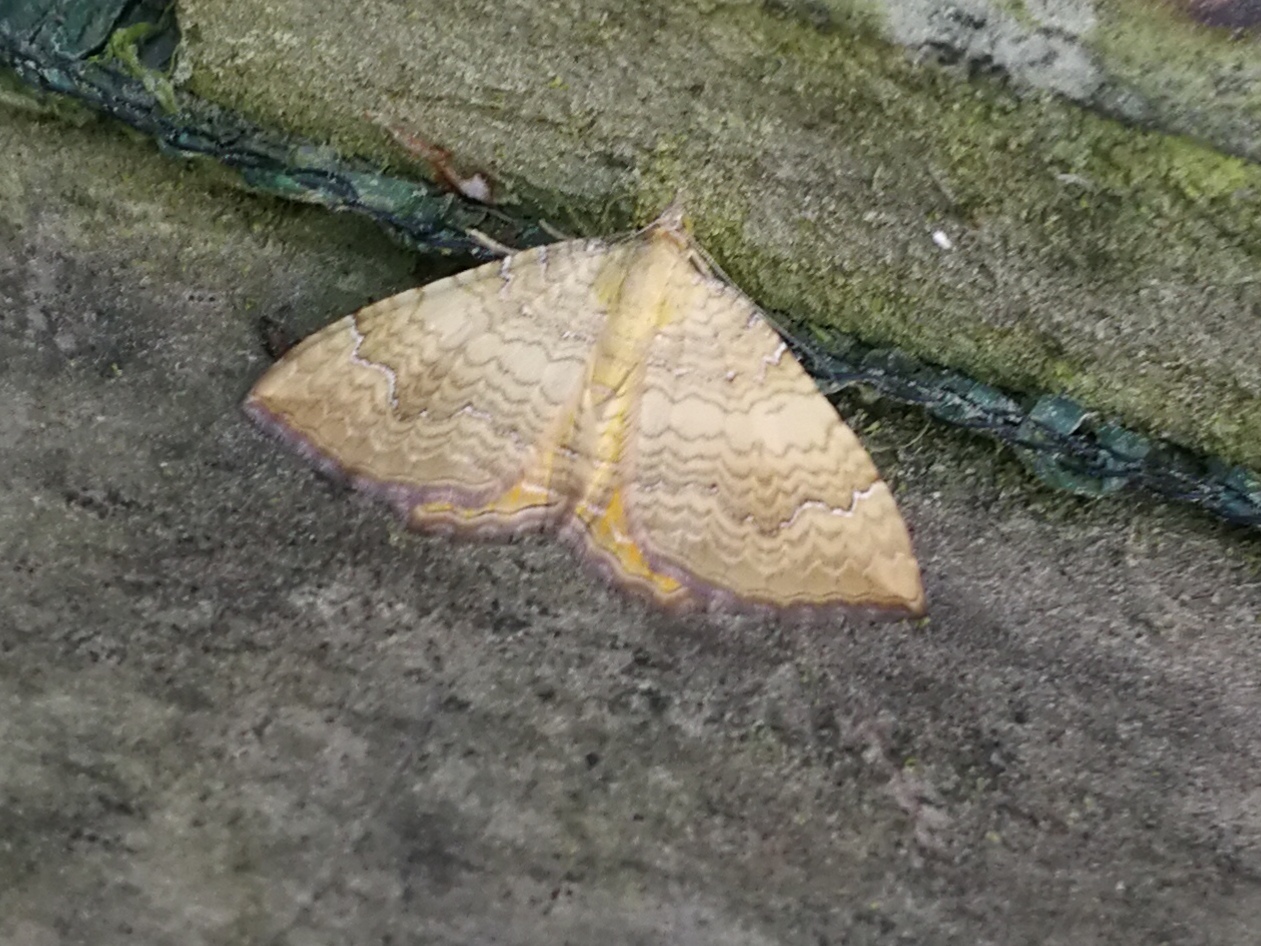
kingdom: Animalia
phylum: Arthropoda
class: Insecta
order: Lepidoptera
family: Geometridae
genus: Camptogramma
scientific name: Camptogramma bilineata
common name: Yellow shell
